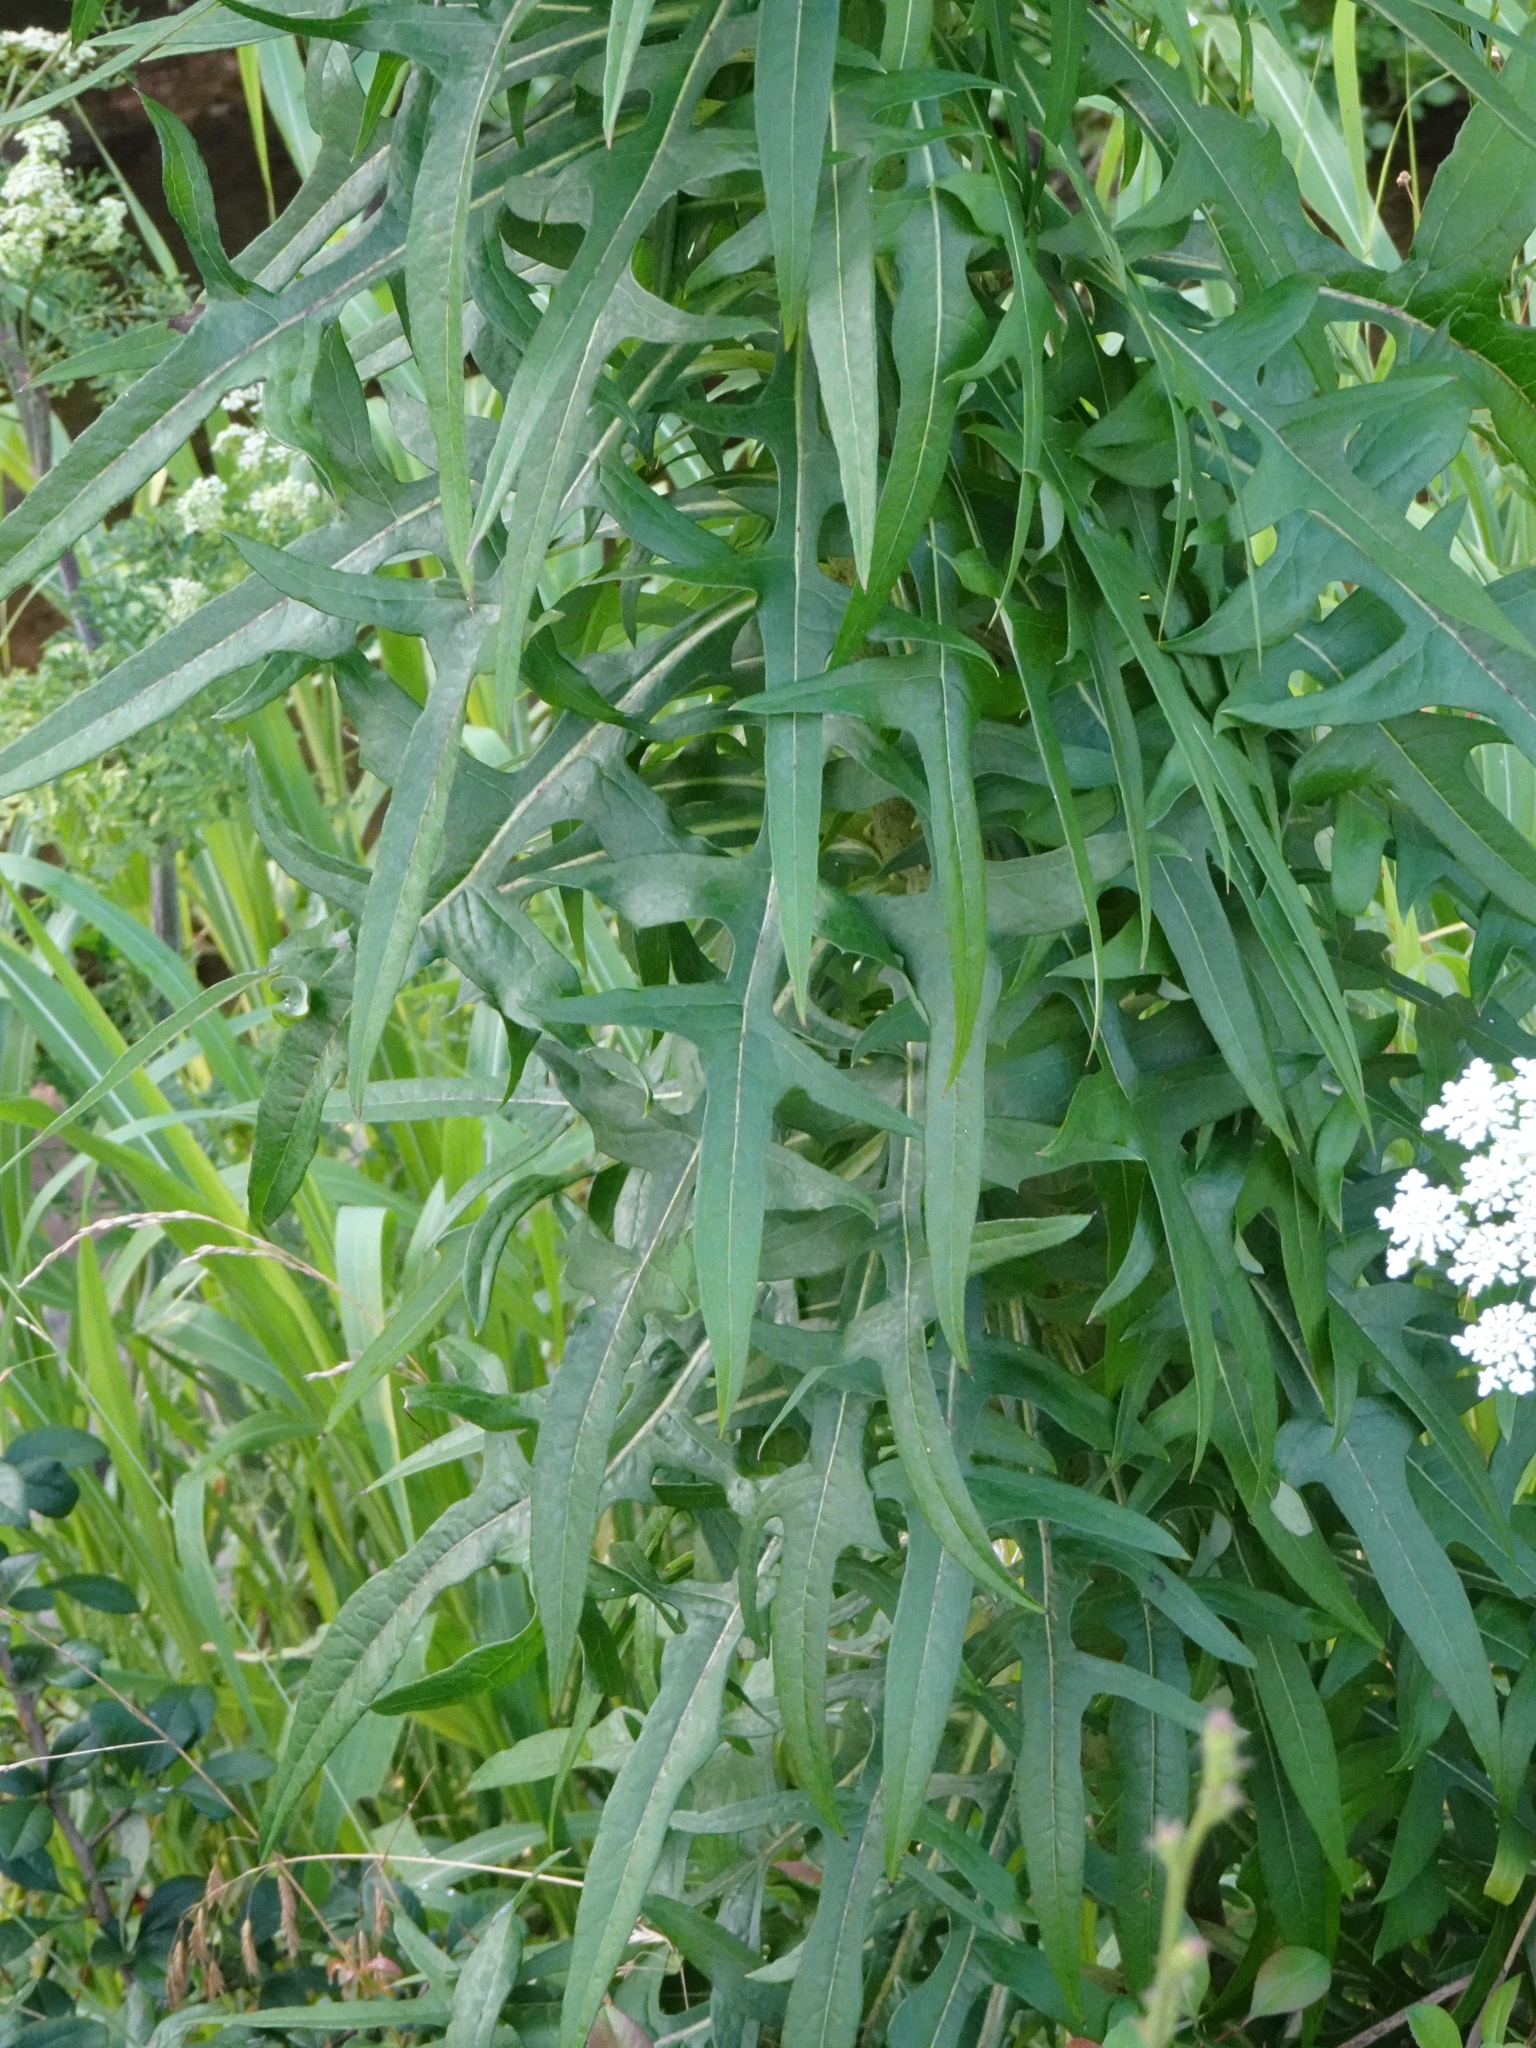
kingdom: Plantae
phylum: Tracheophyta
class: Magnoliopsida
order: Asterales
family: Asteraceae
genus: Lactuca
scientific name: Lactuca canadensis
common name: Canada lettuce
